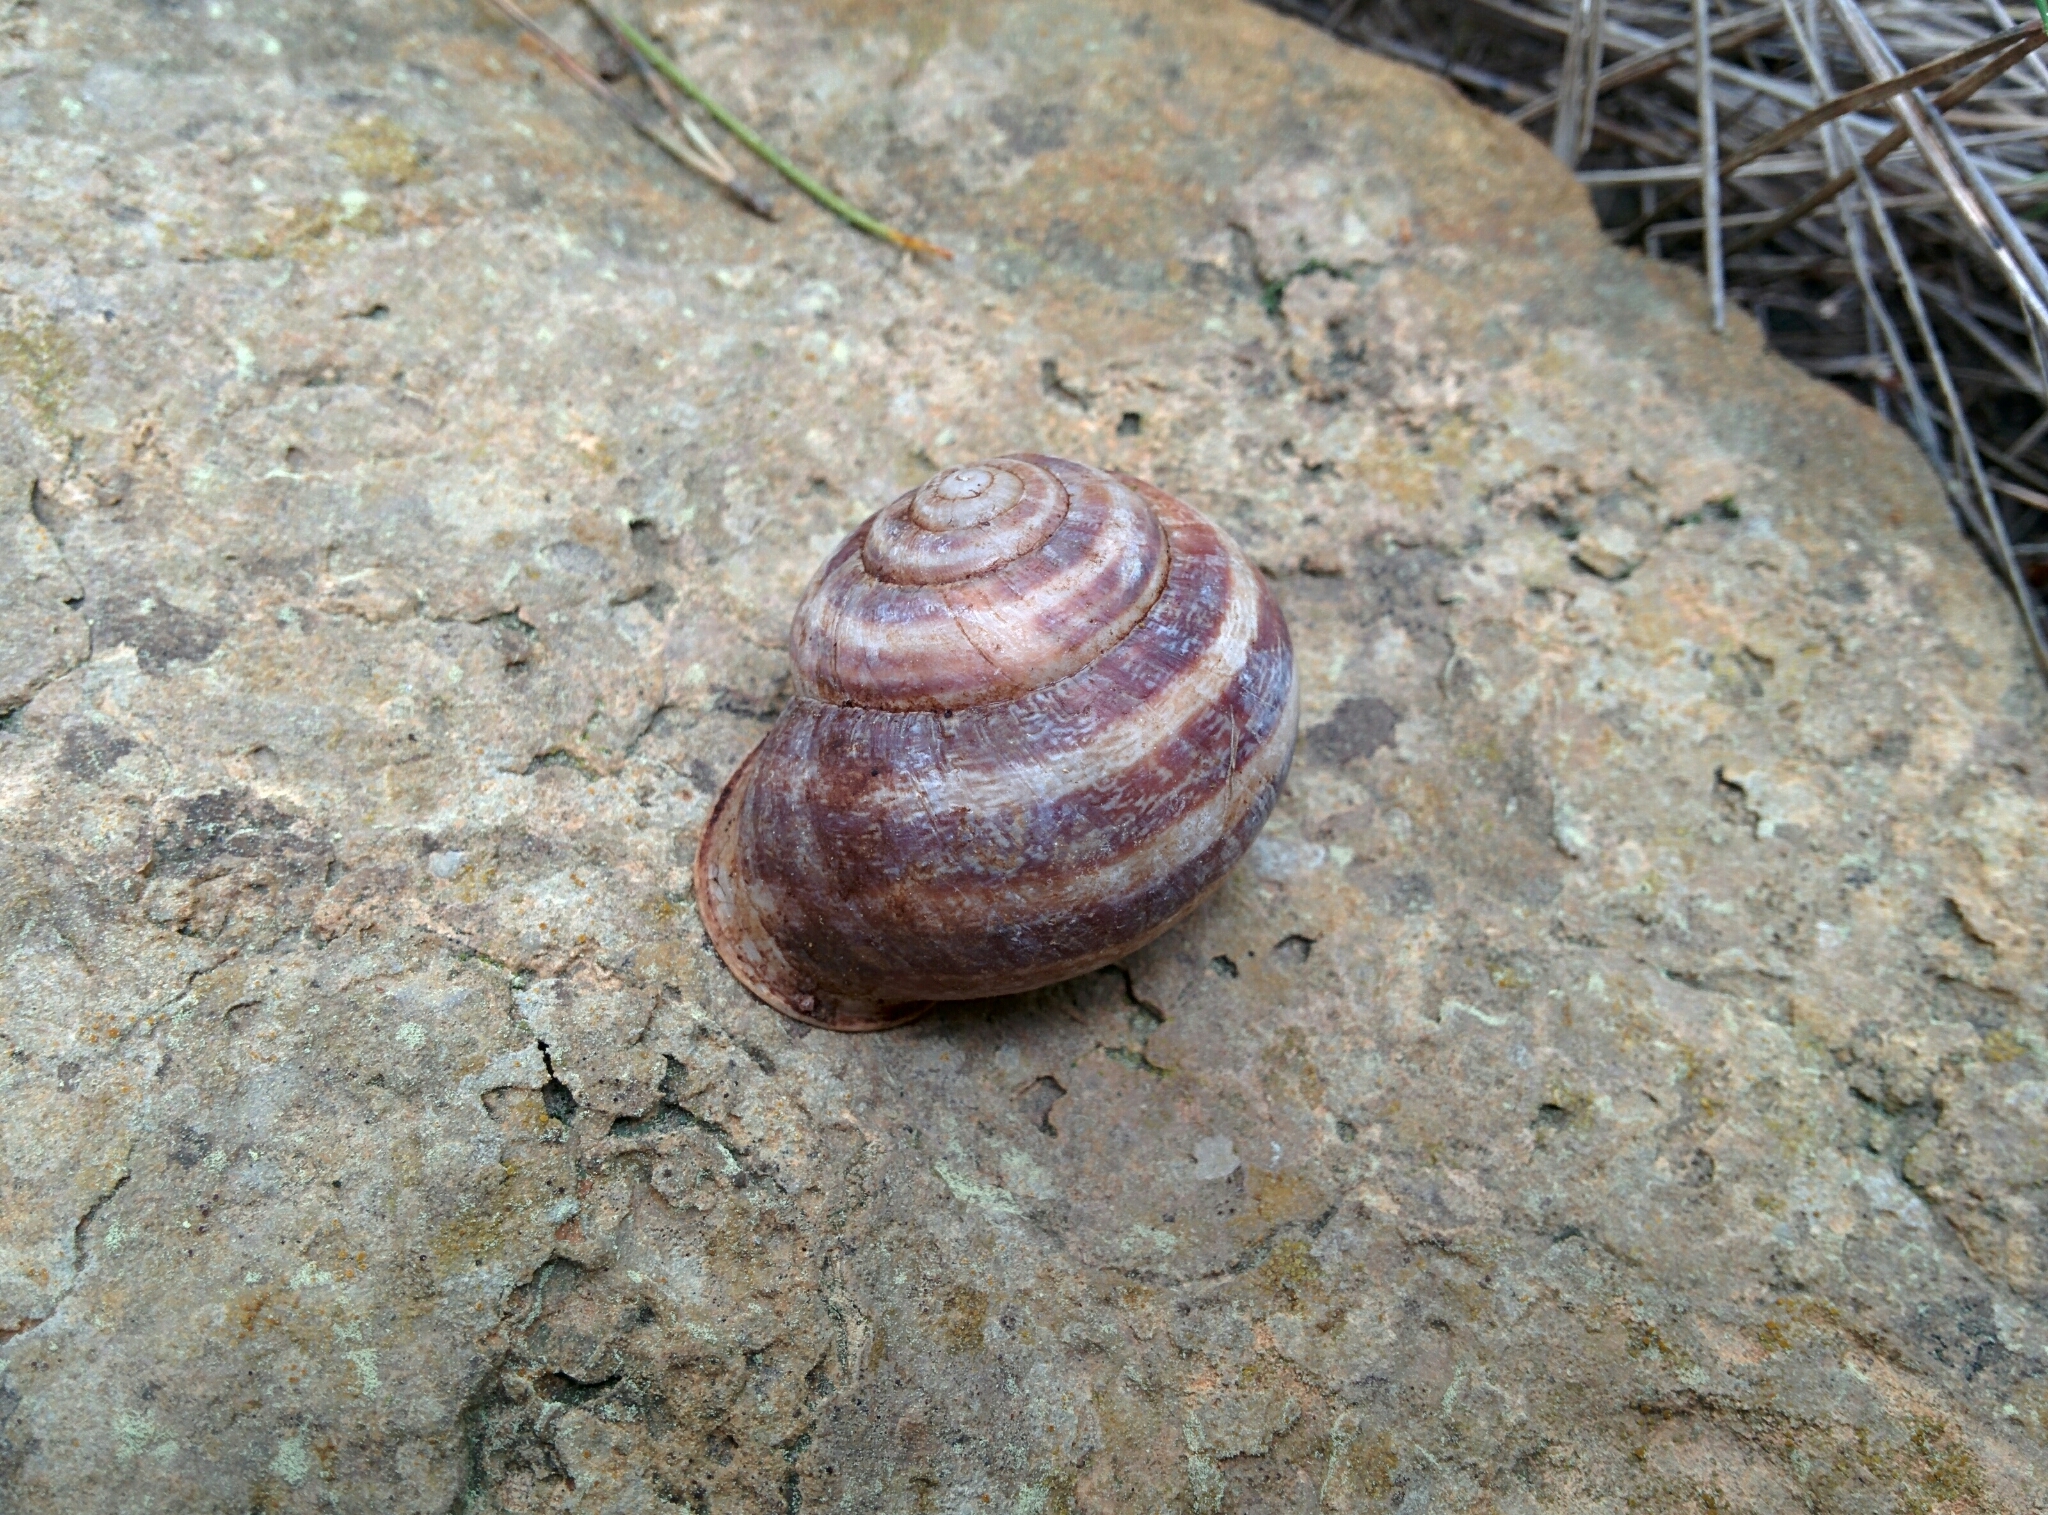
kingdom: Animalia
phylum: Mollusca
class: Gastropoda
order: Stylommatophora
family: Helicidae
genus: Eobania
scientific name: Eobania vermiculata
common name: Chocolateband snail
